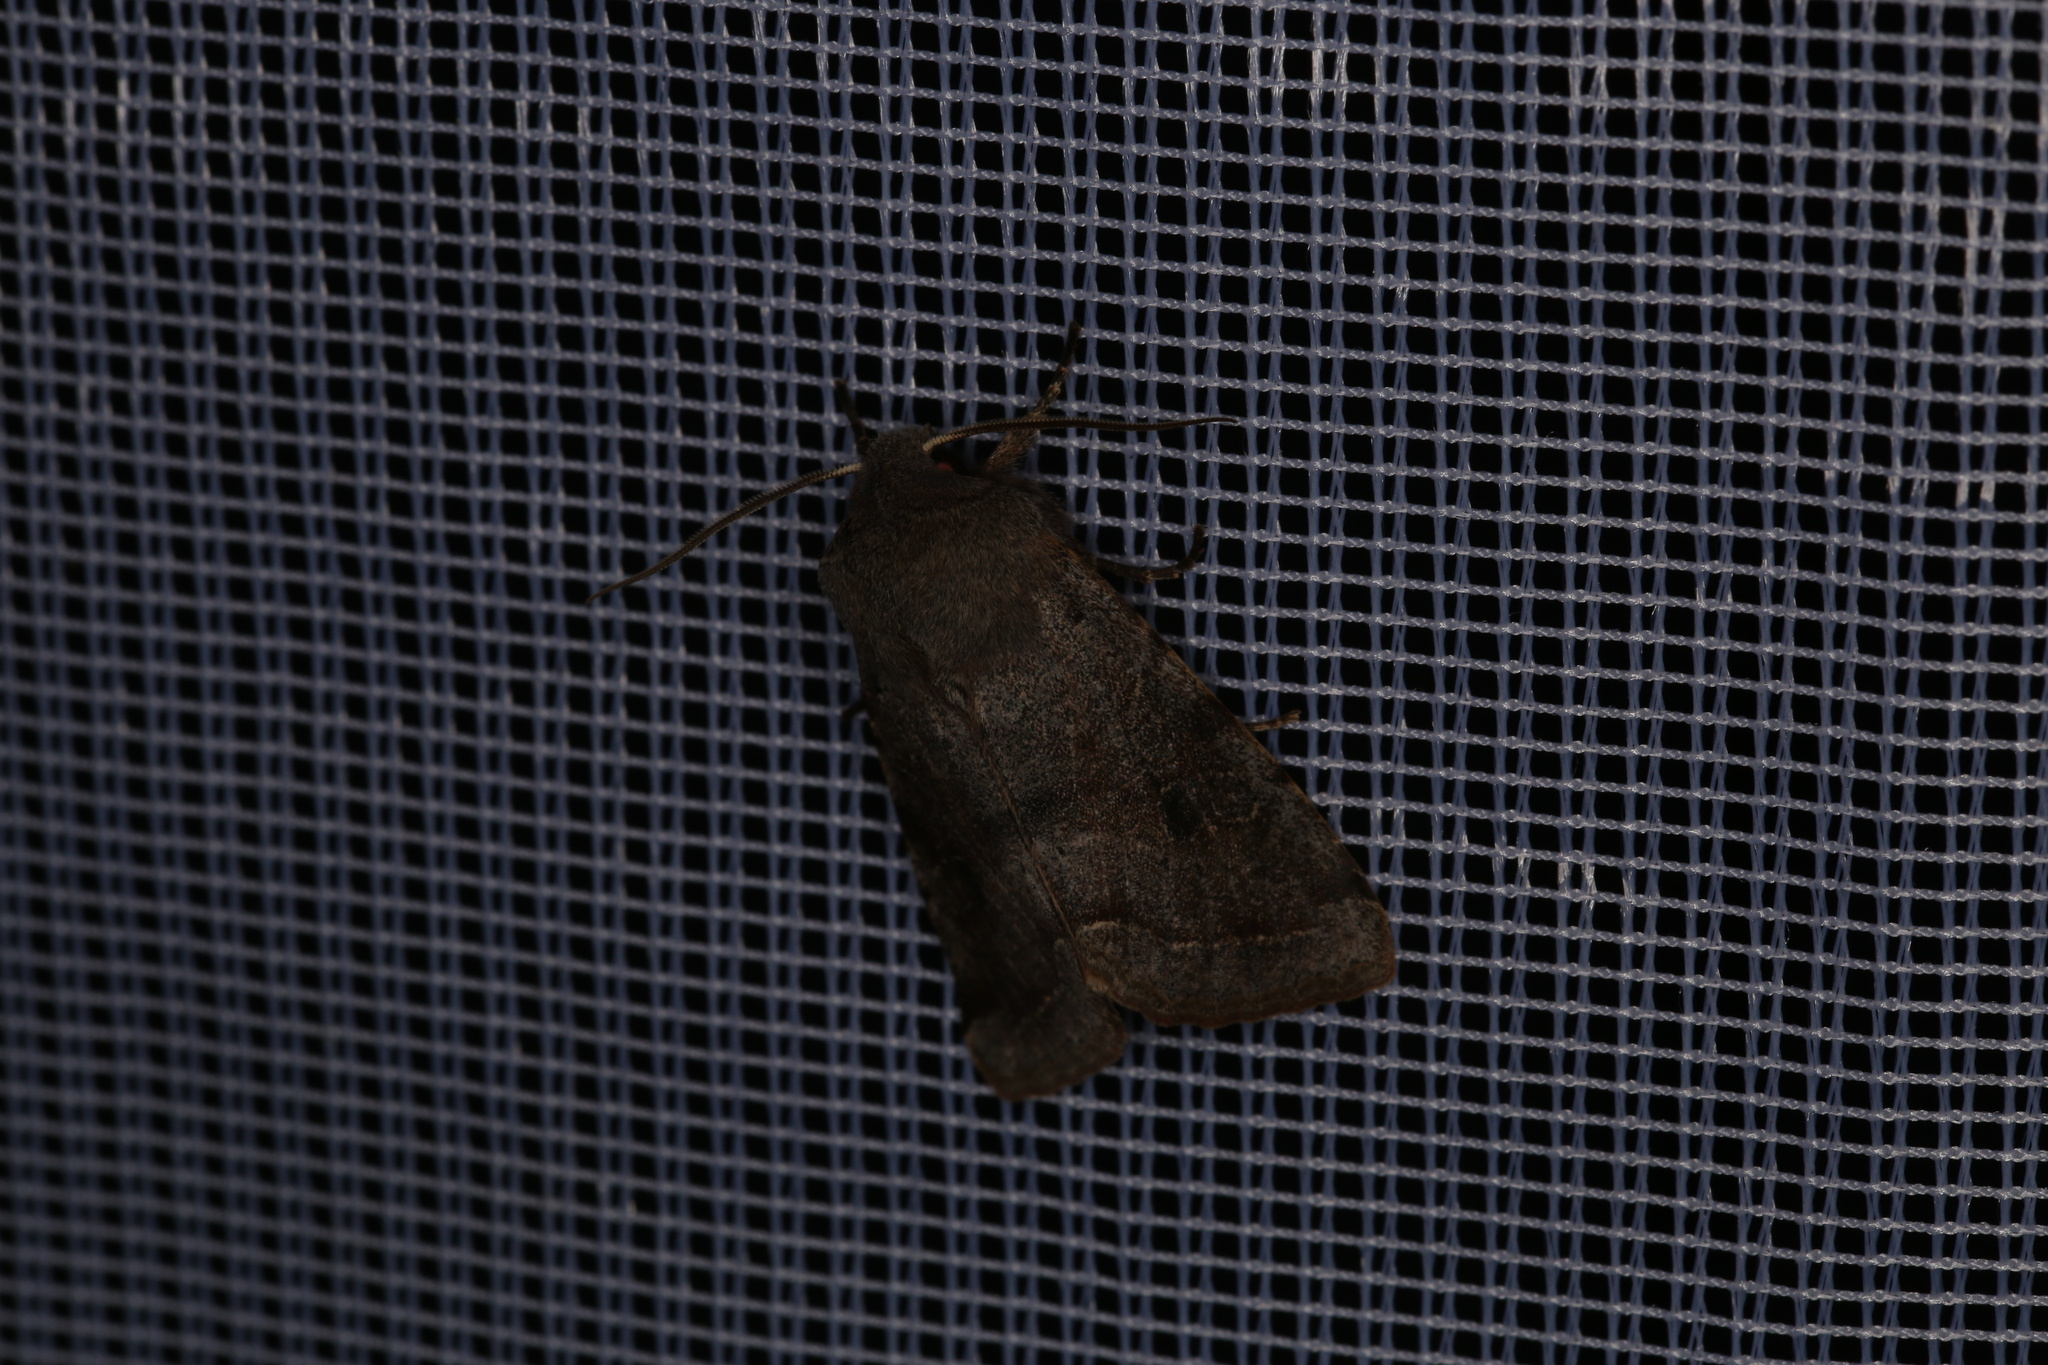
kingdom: Animalia
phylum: Arthropoda
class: Insecta
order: Lepidoptera
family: Noctuidae
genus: Orthosia
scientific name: Orthosia incerta
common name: Clouded drab
